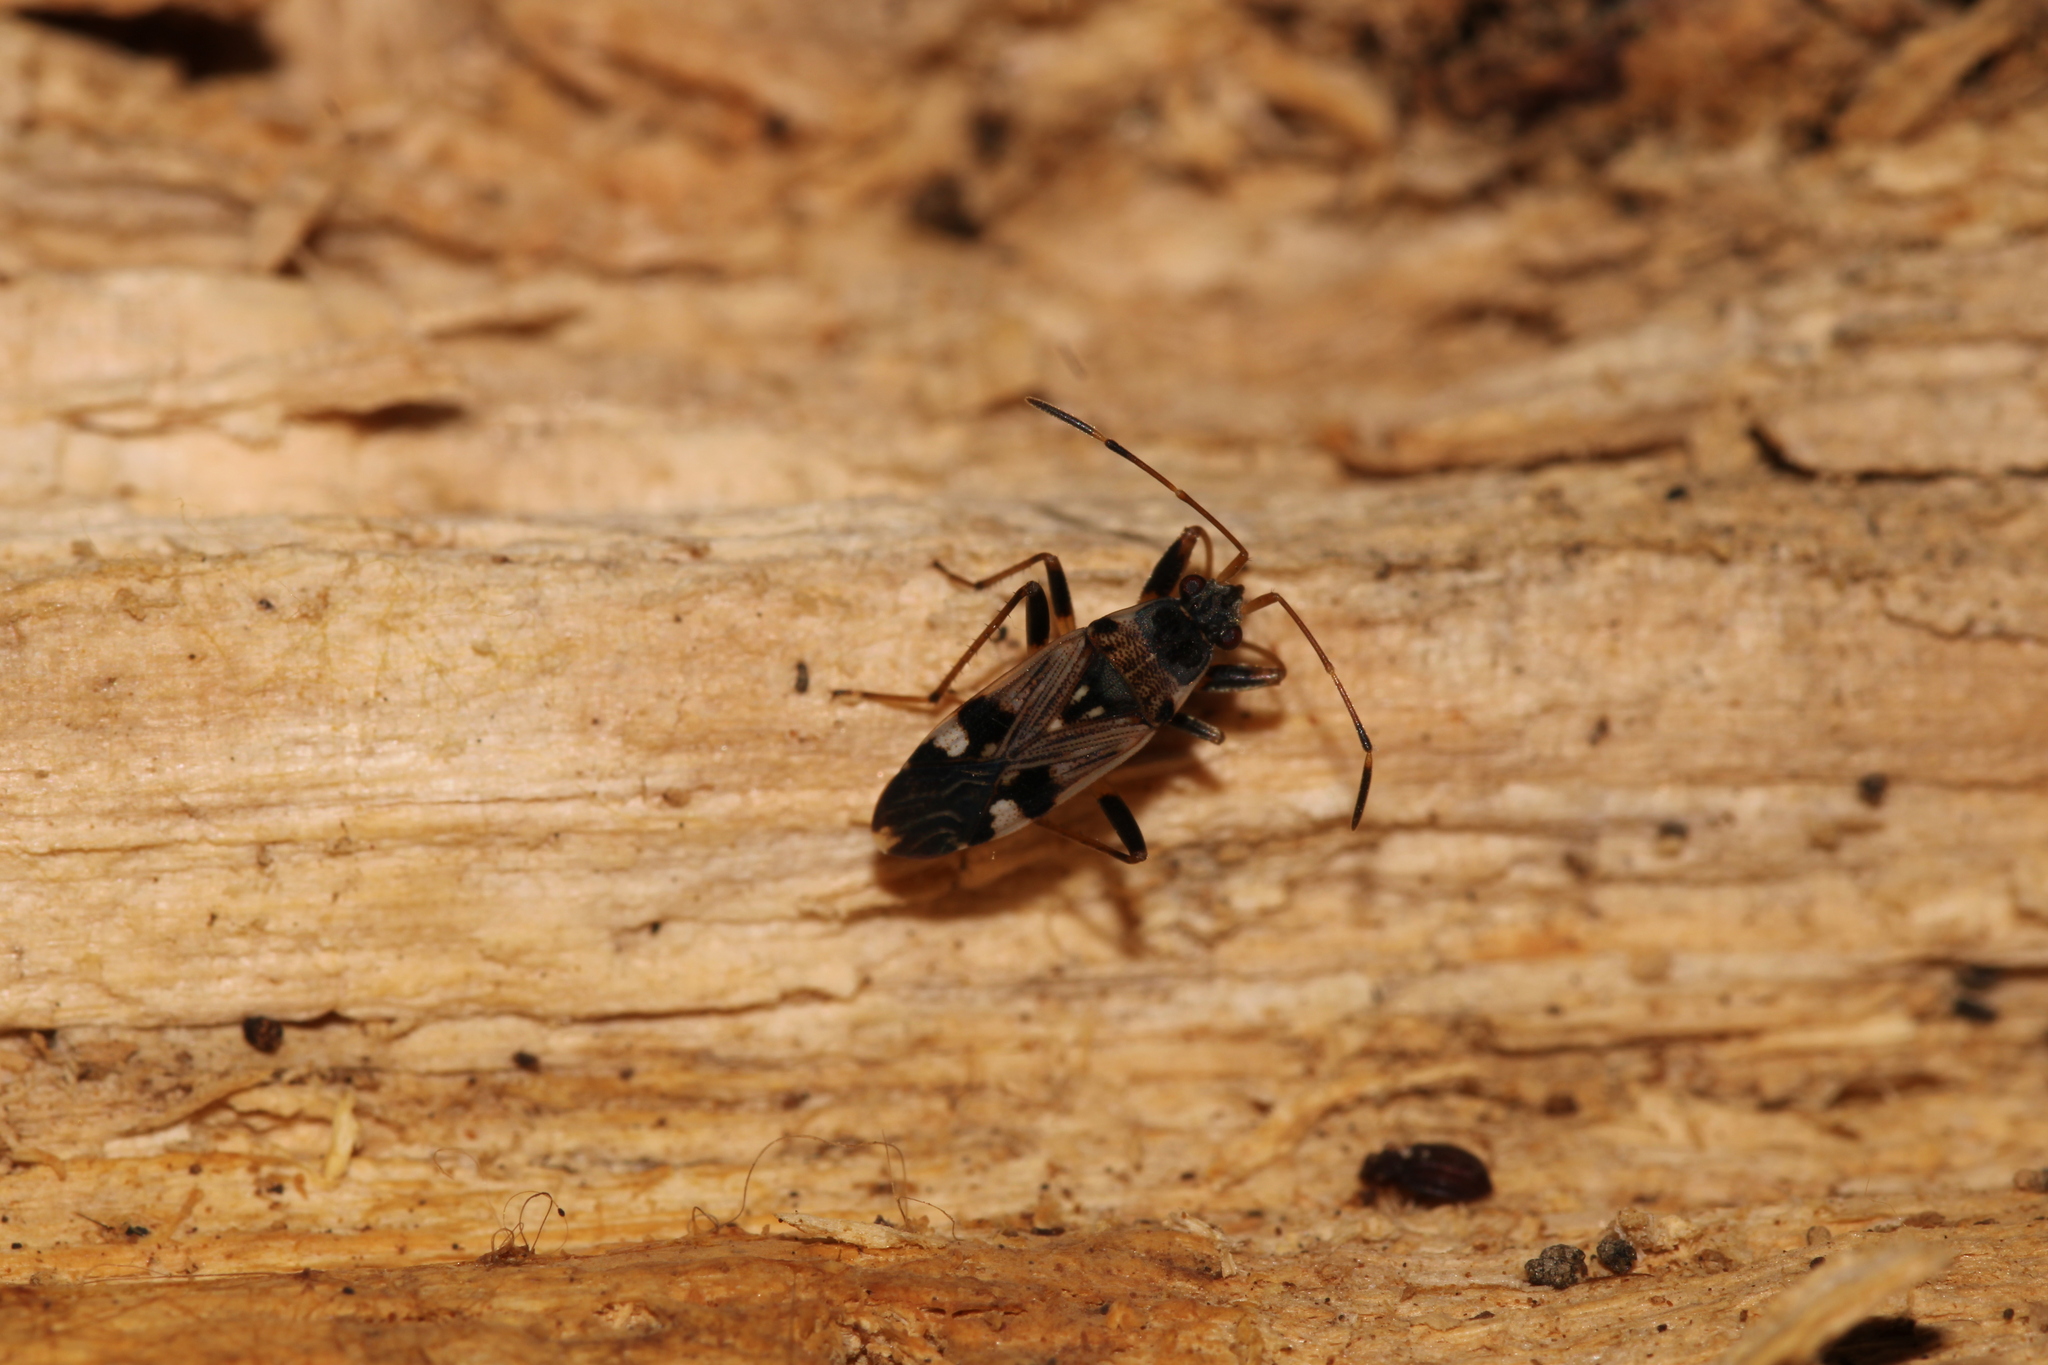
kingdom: Animalia
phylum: Arthropoda
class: Insecta
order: Hemiptera
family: Rhyparochromidae
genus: Beosus
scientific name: Beosus maritimus
